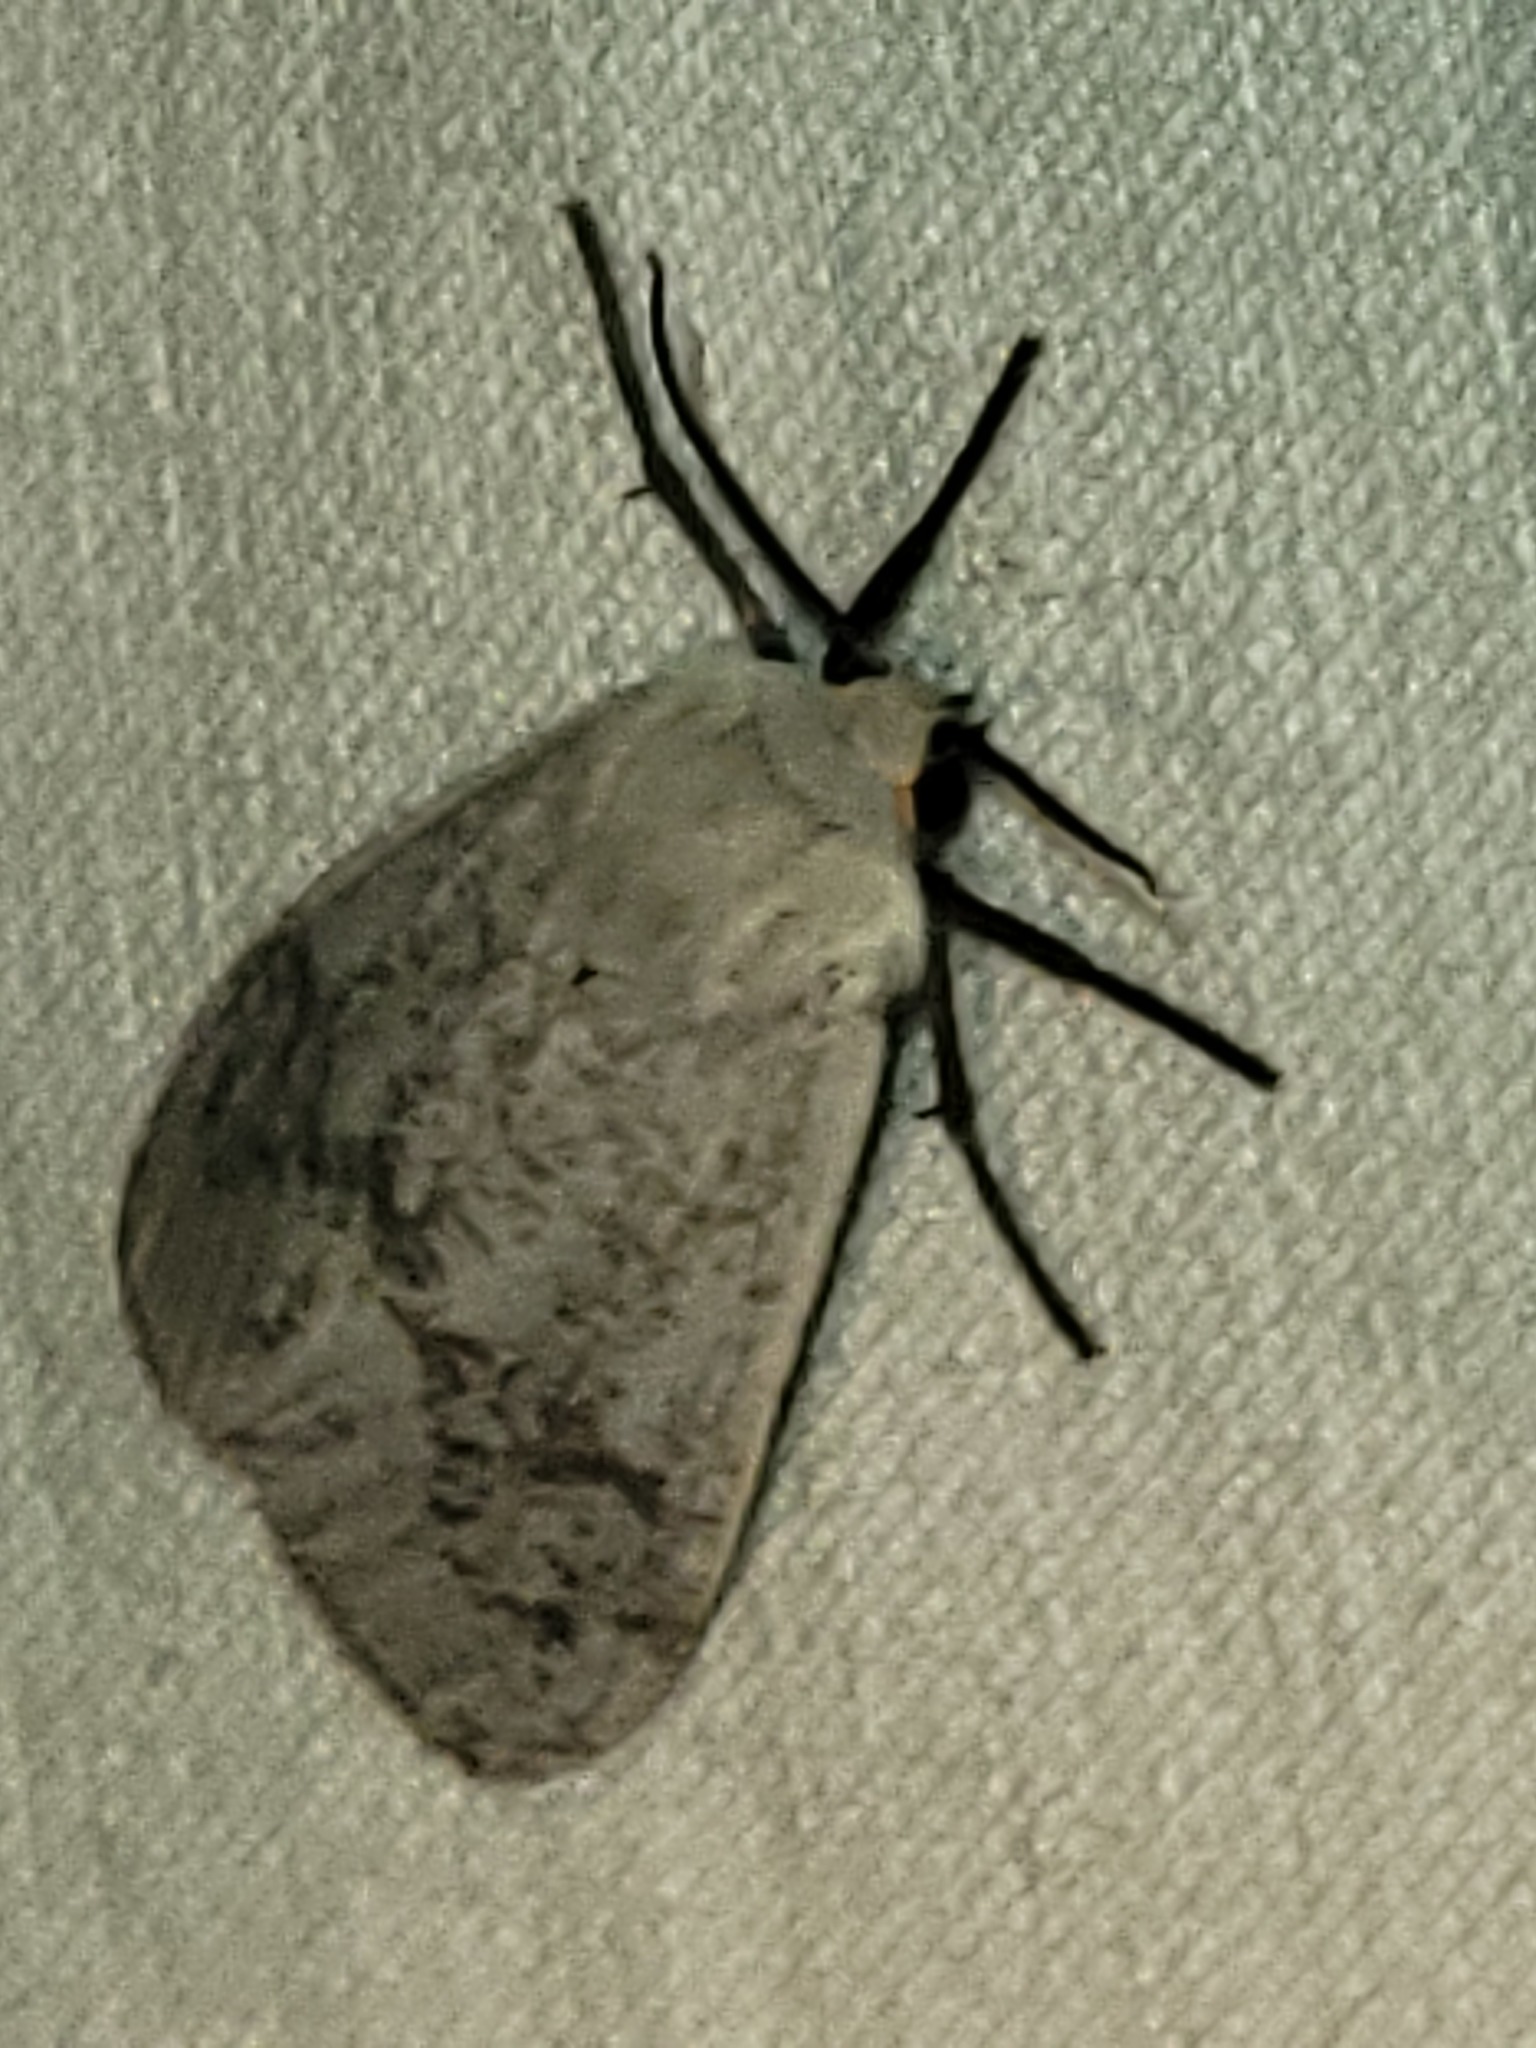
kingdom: Animalia
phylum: Arthropoda
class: Insecta
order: Lepidoptera
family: Erebidae
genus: Euchaetes
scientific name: Euchaetes bolteri
